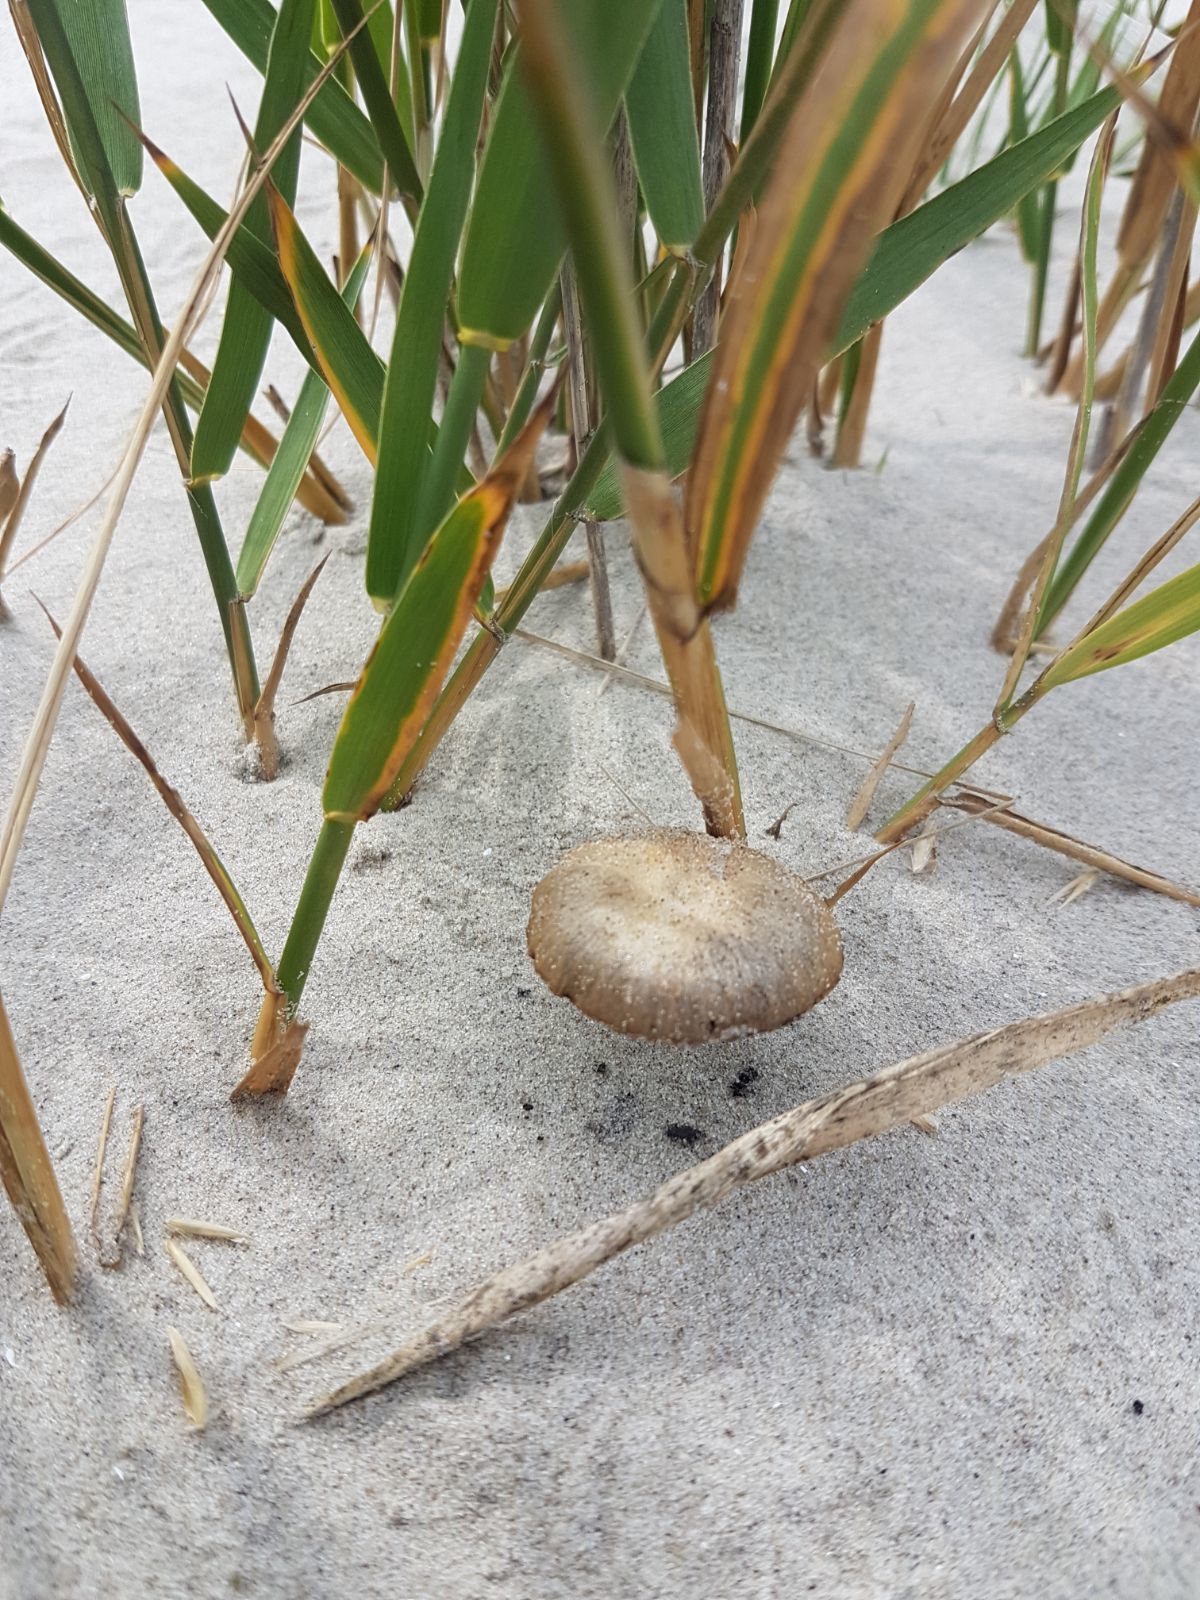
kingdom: Fungi
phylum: Basidiomycota
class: Agaricomycetes
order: Agaricales
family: Psathyrellaceae
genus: Psathyrella
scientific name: Psathyrella ammophila
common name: Dune brittlestem
